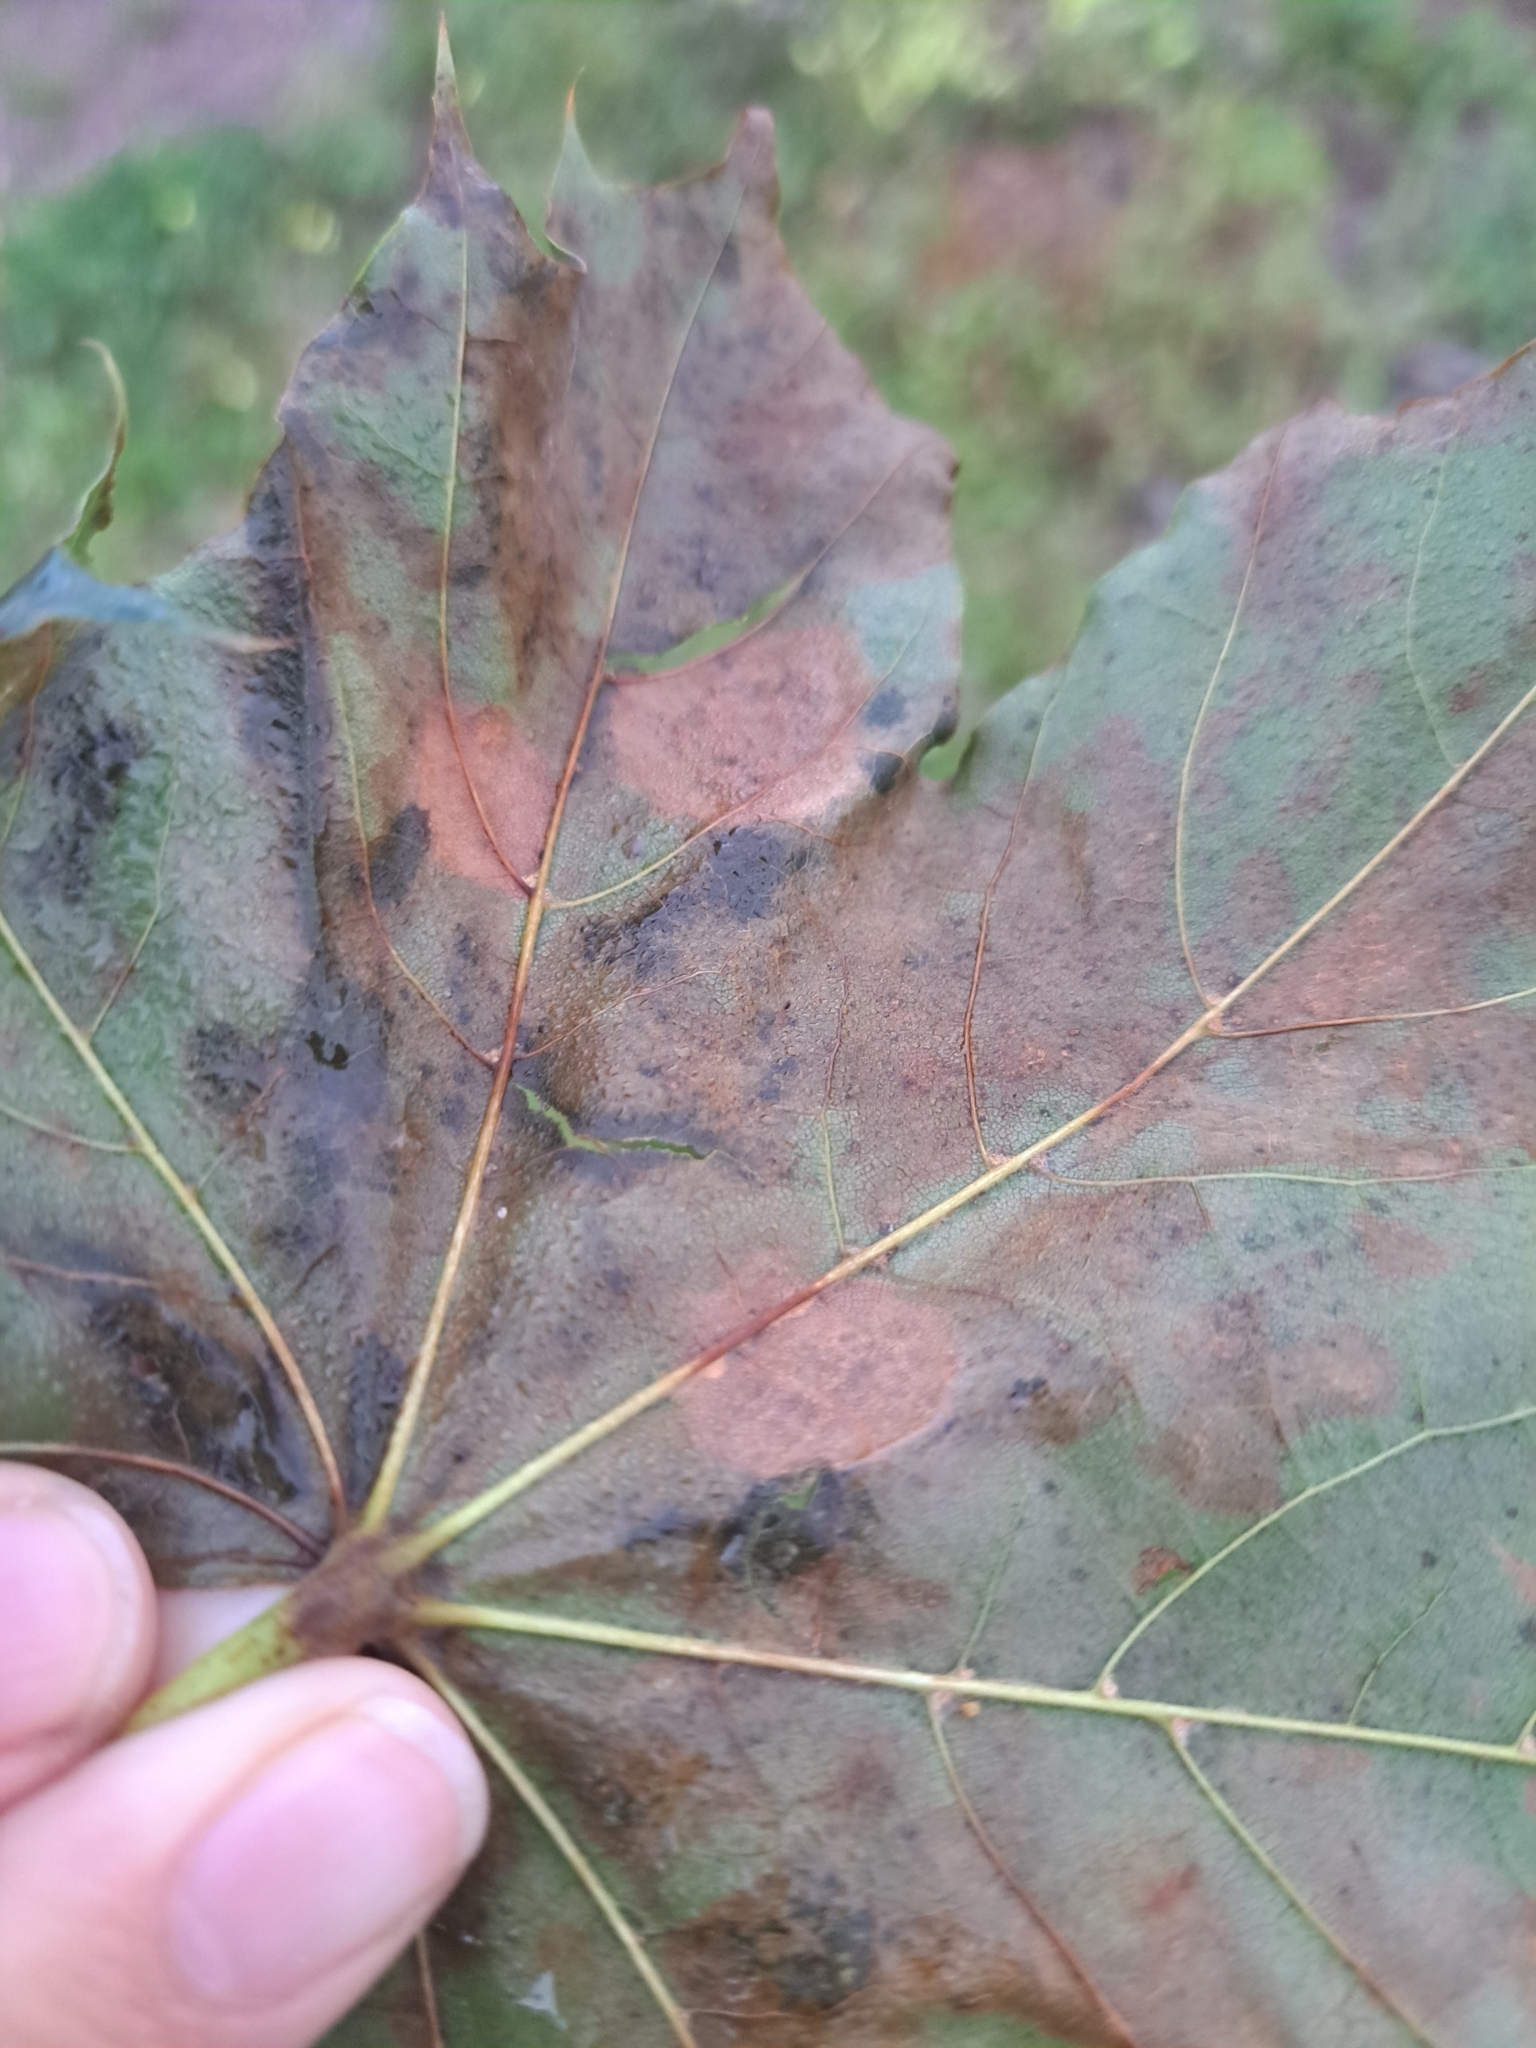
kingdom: Fungi
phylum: Ascomycota
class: Leotiomycetes
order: Rhytismatales
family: Rhytismataceae
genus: Rhytisma
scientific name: Rhytisma acerinum
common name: European tar spot
